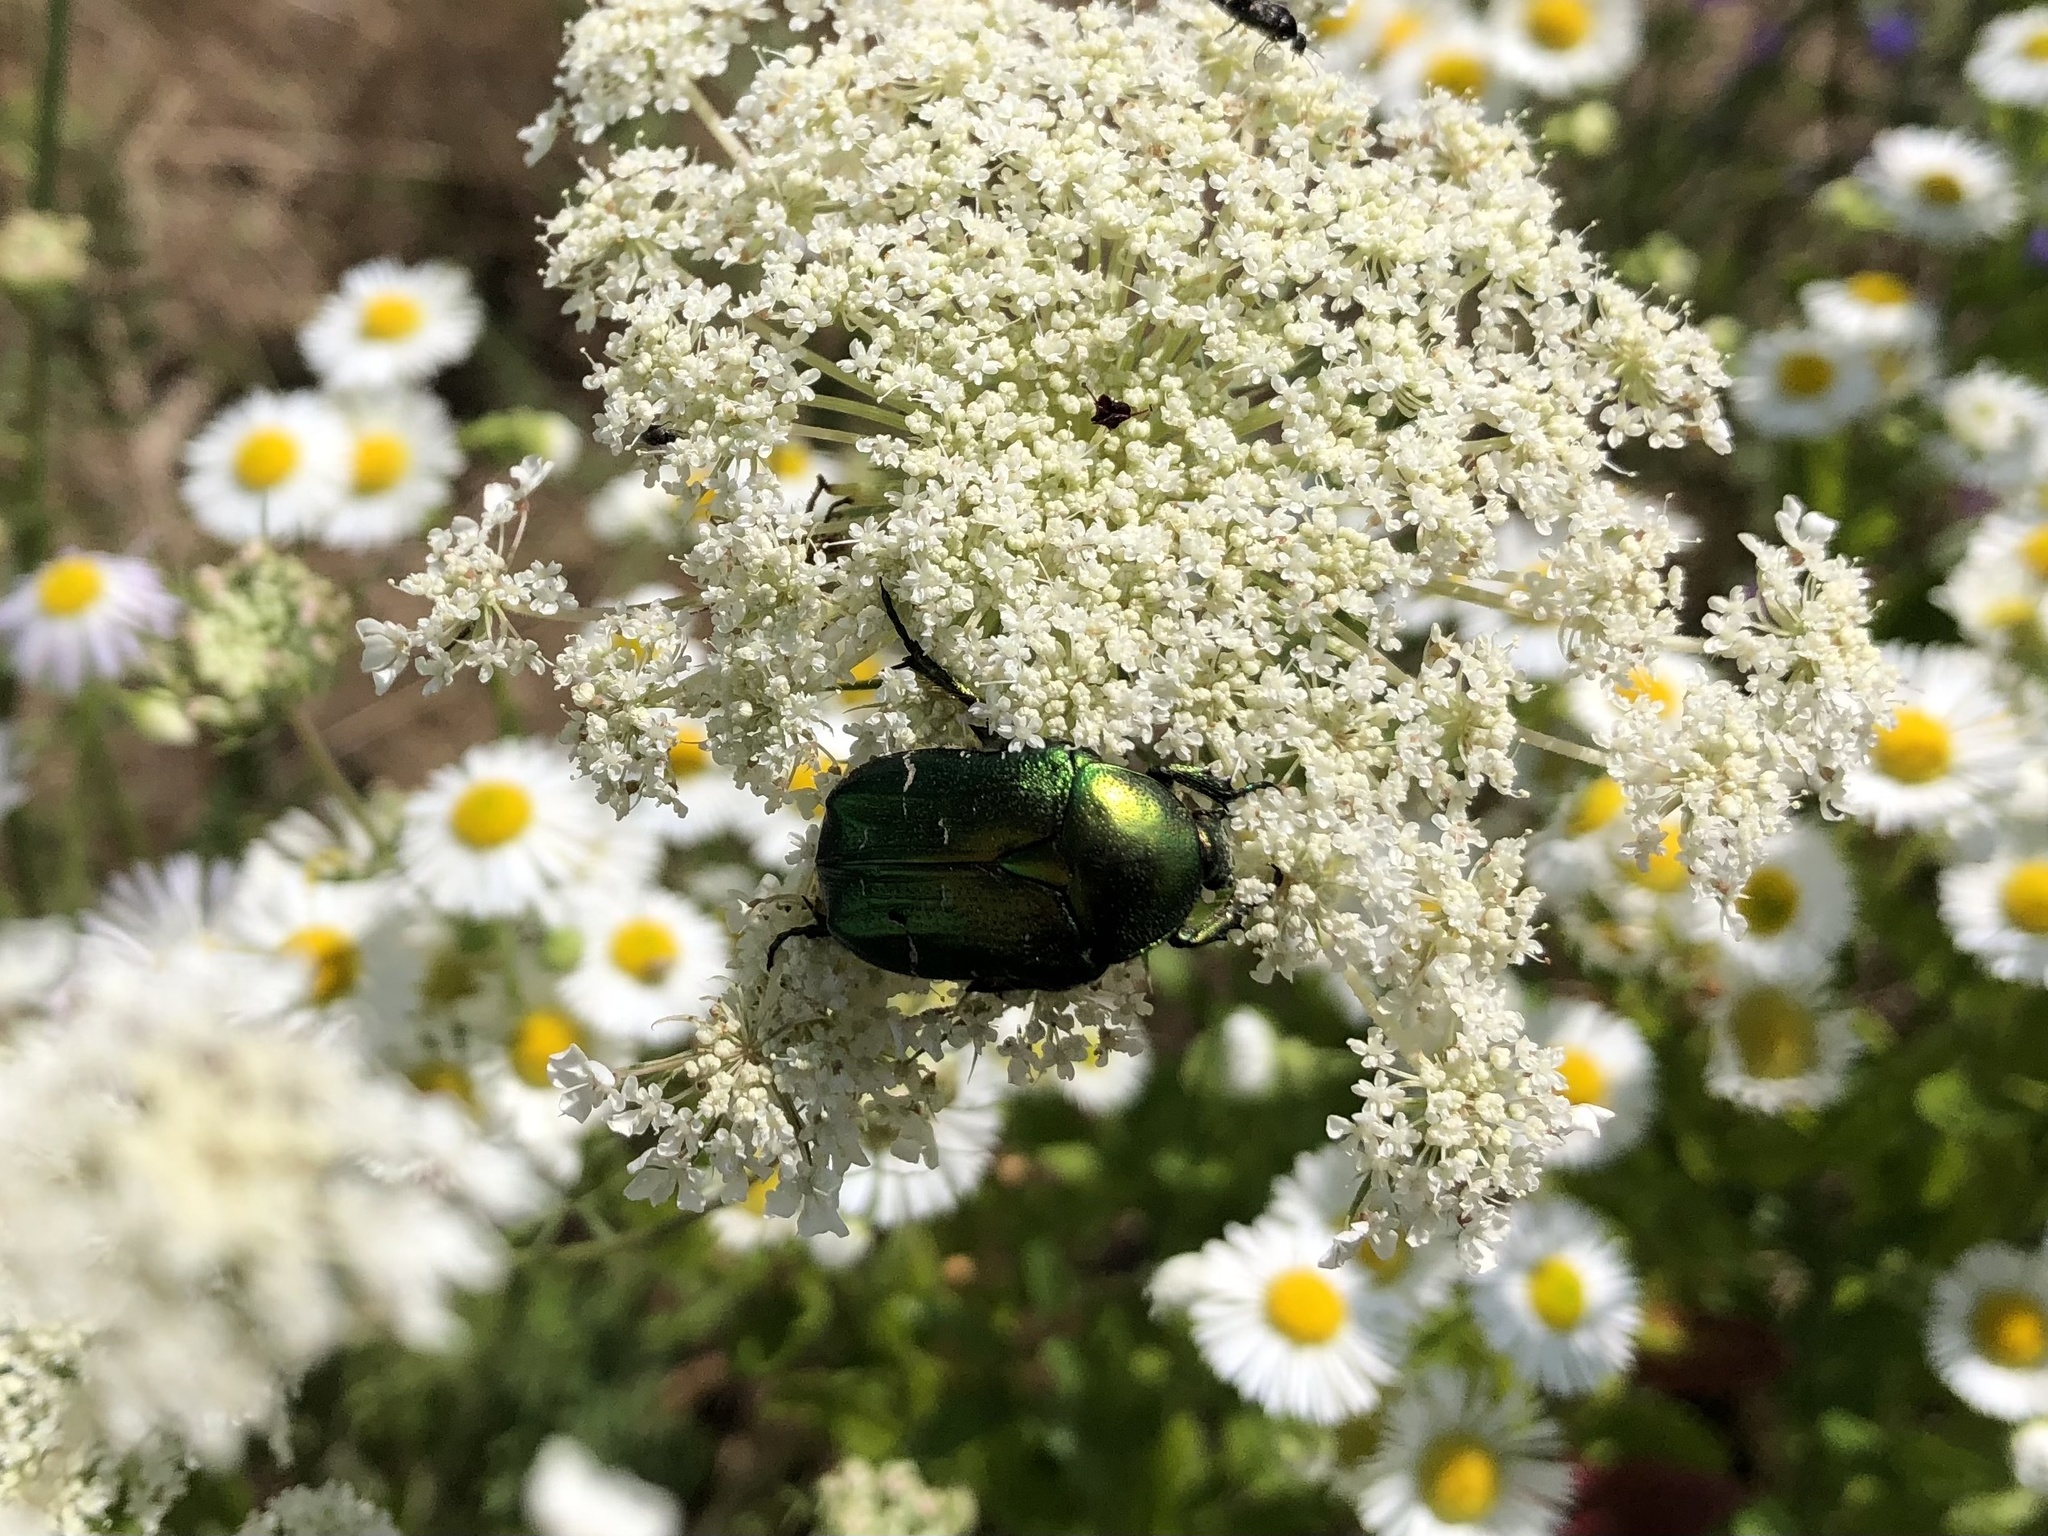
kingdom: Animalia
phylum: Arthropoda
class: Insecta
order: Coleoptera
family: Scarabaeidae
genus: Cetonia
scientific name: Cetonia aurata
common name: Rose chafer
